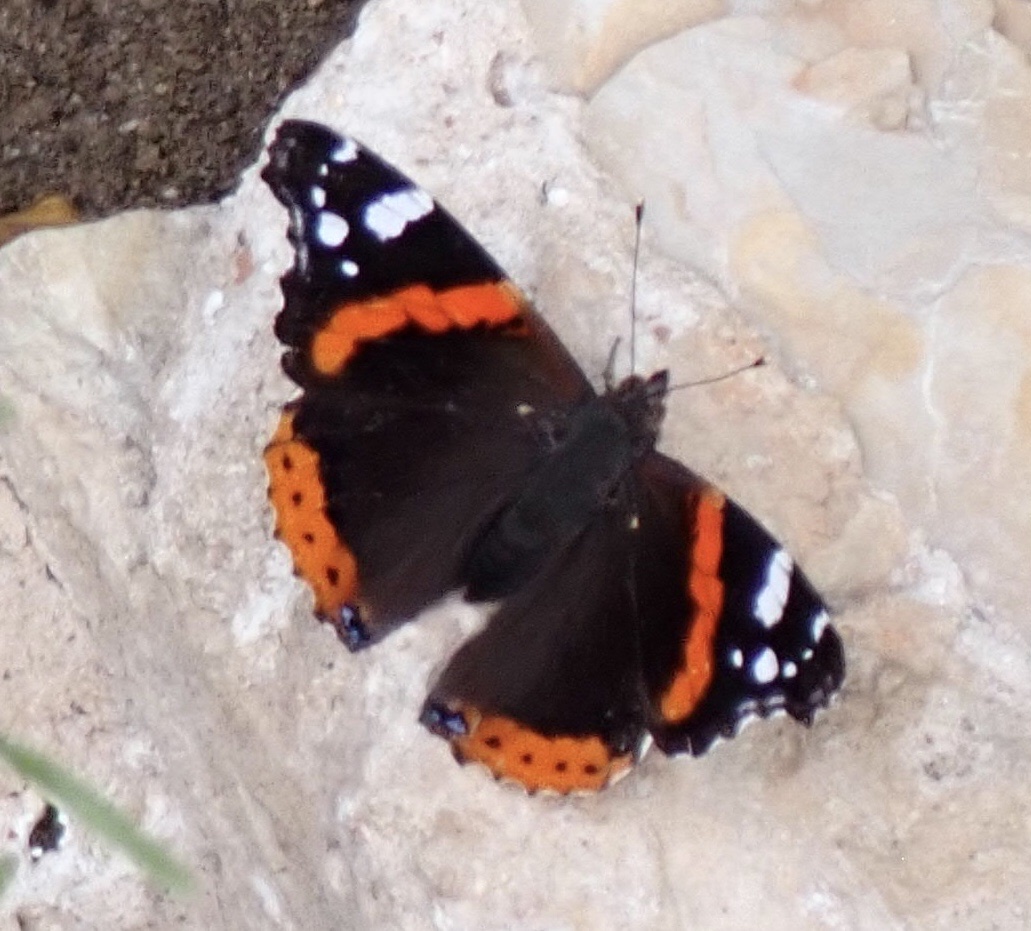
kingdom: Animalia
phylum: Arthropoda
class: Insecta
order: Lepidoptera
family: Nymphalidae
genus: Vanessa
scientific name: Vanessa atalanta
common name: Red admiral
